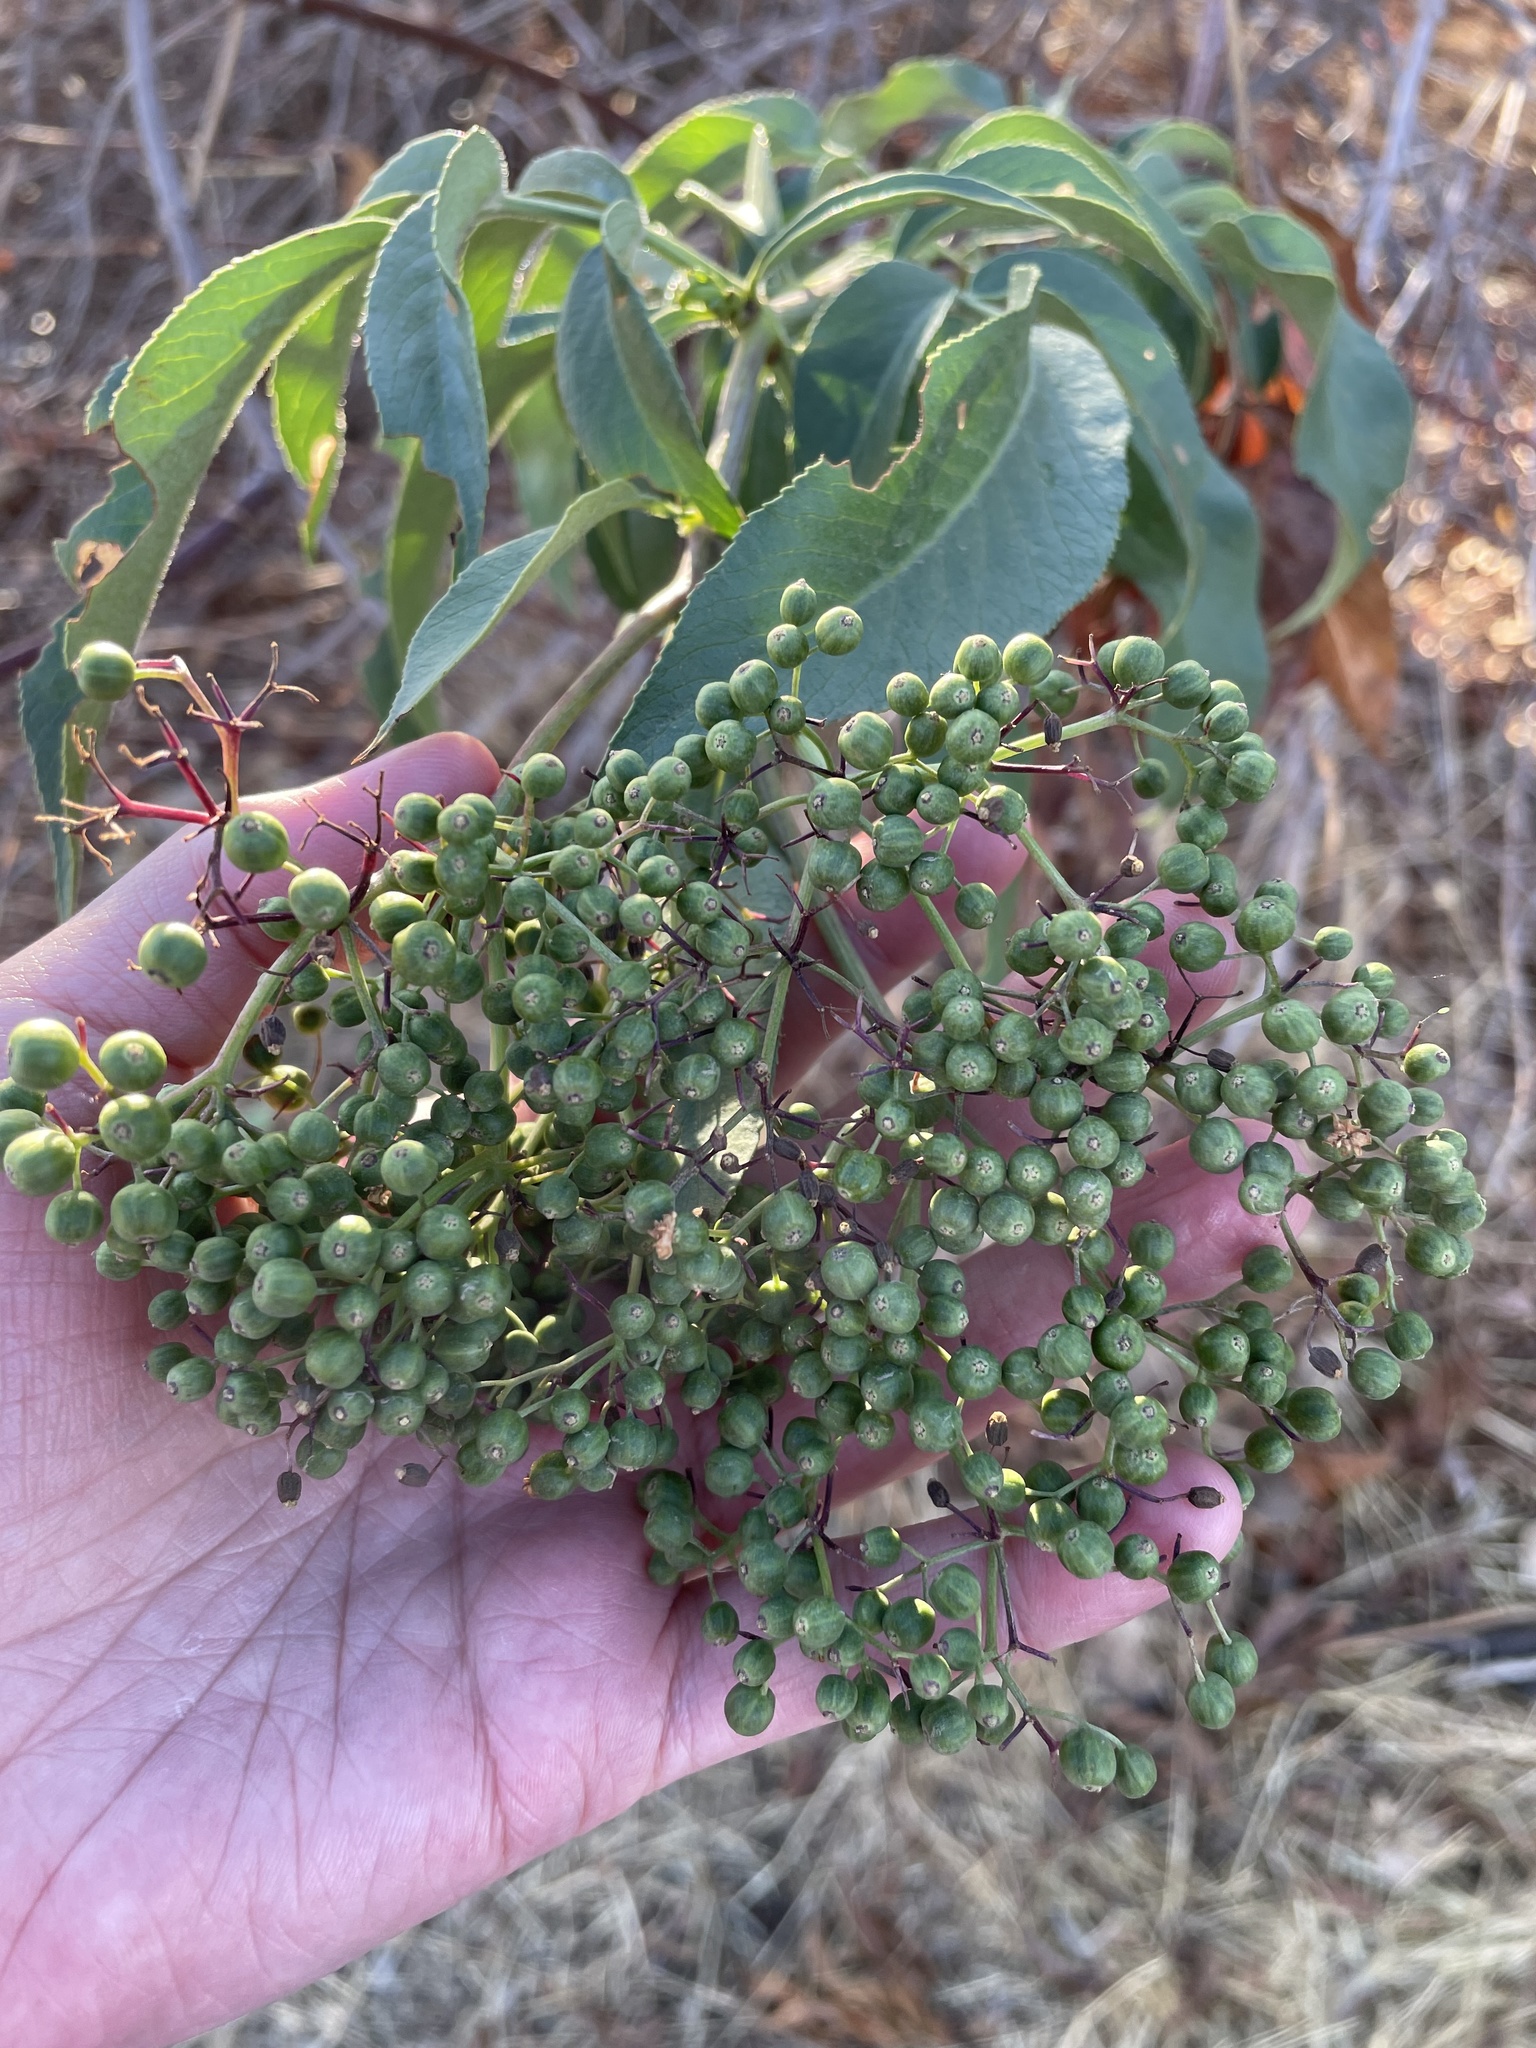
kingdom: Plantae
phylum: Tracheophyta
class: Magnoliopsida
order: Dipsacales
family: Viburnaceae
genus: Sambucus
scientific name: Sambucus cerulea
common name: Blue elder
